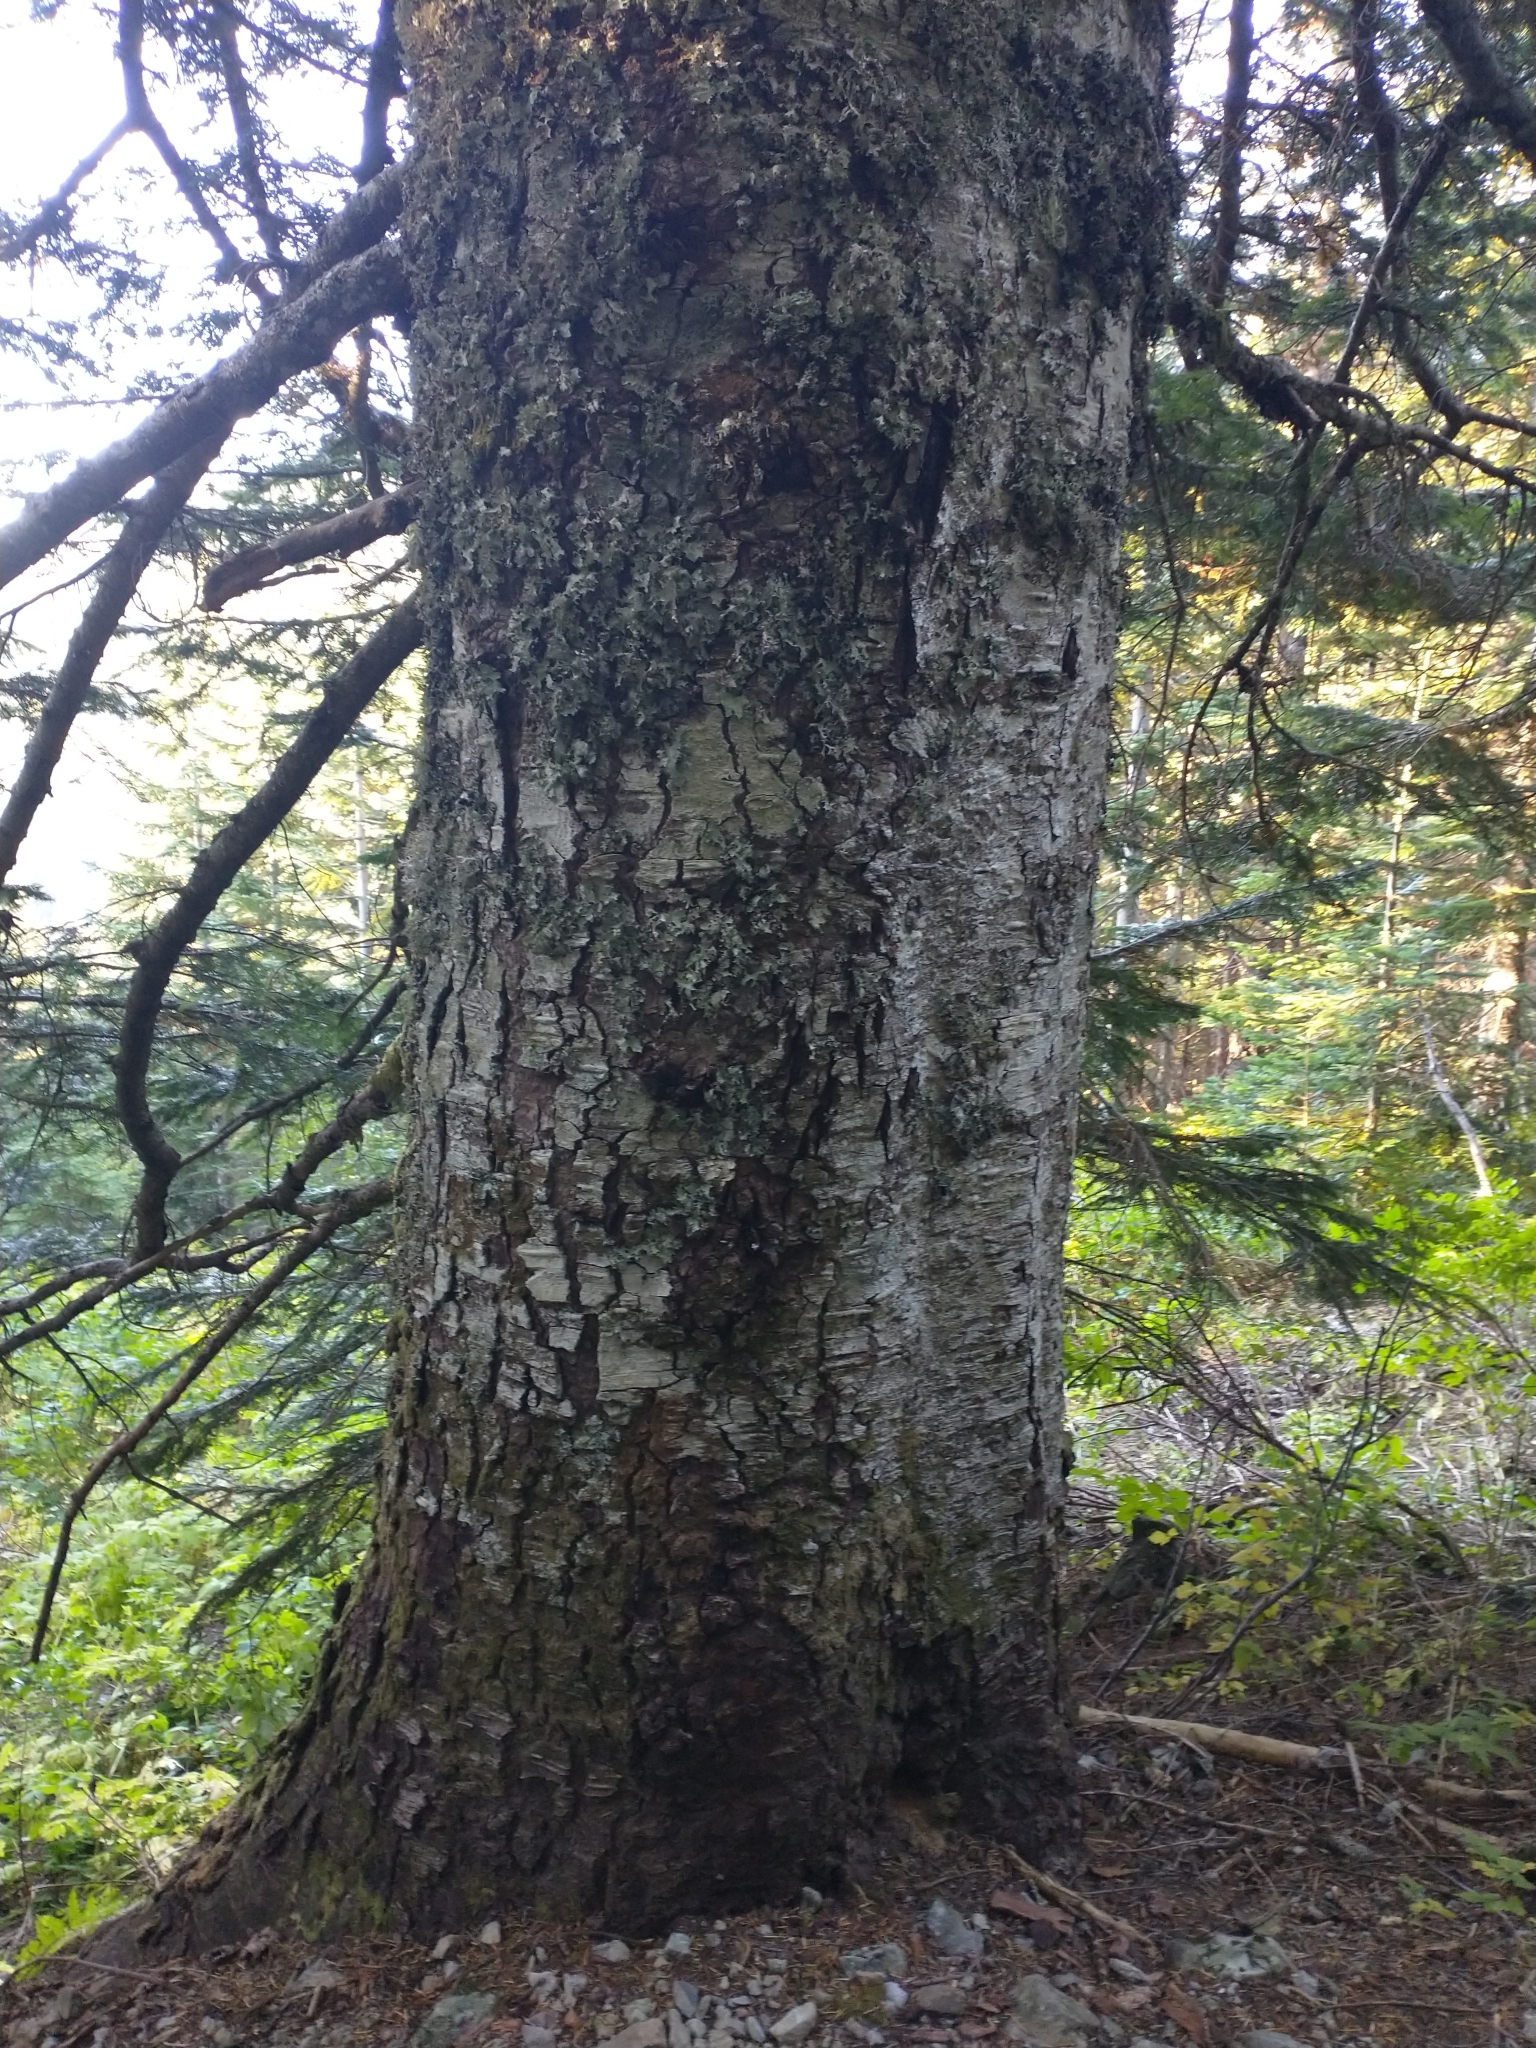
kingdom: Plantae
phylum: Tracheophyta
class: Pinopsida
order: Pinales
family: Pinaceae
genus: Abies
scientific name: Abies amabilis
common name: Pacific silver fir
